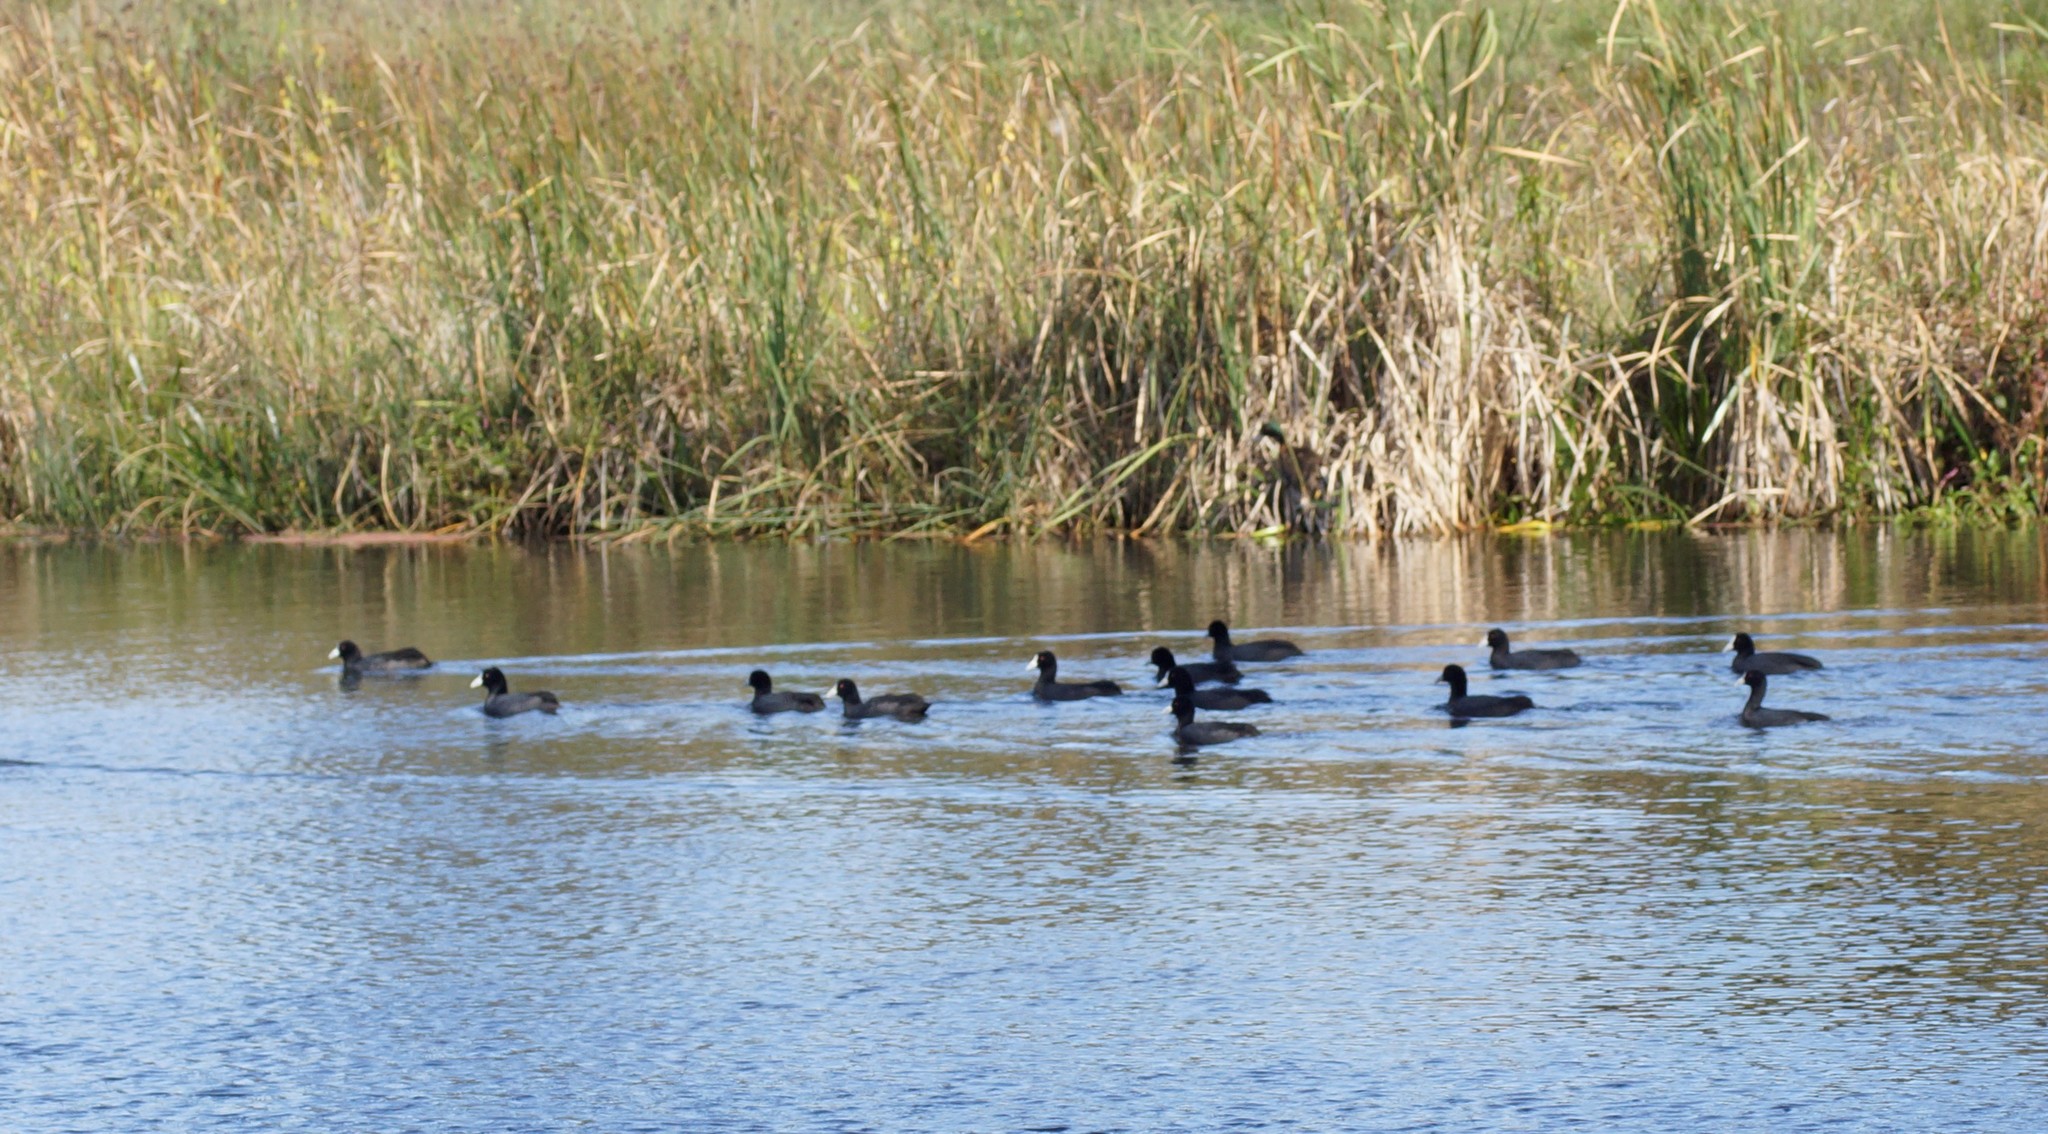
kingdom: Animalia
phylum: Chordata
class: Aves
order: Gruiformes
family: Rallidae
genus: Fulica
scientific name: Fulica atra
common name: Eurasian coot
